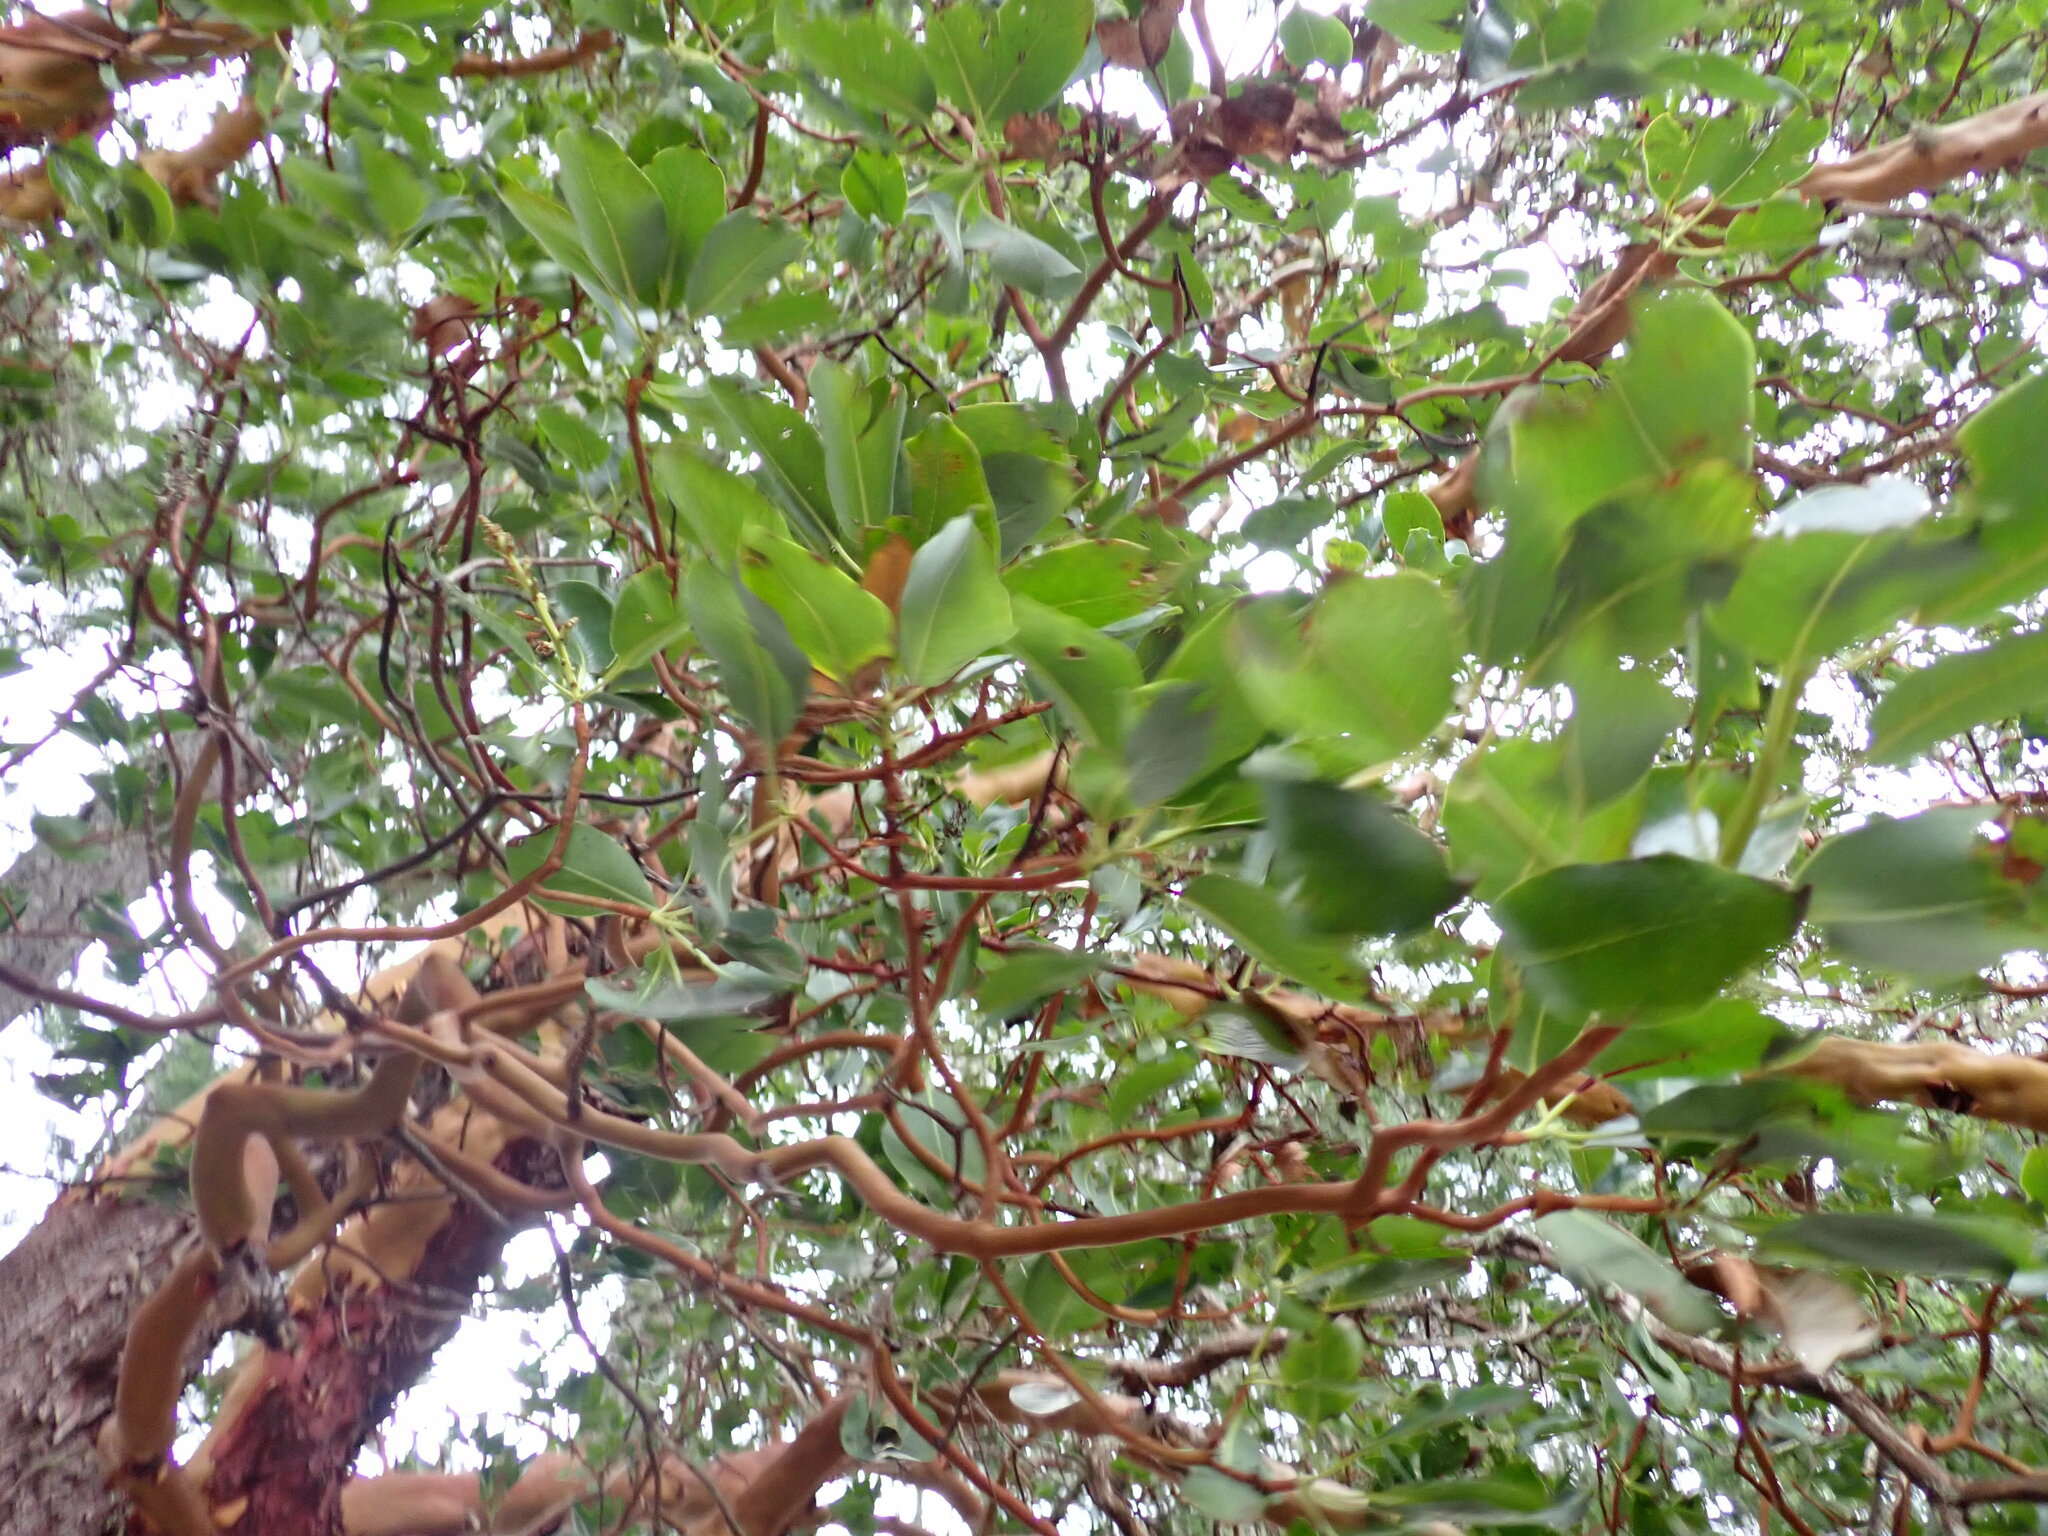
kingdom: Plantae
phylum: Tracheophyta
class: Magnoliopsida
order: Ericales
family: Ericaceae
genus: Arbutus
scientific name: Arbutus menziesii
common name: Pacific madrone
